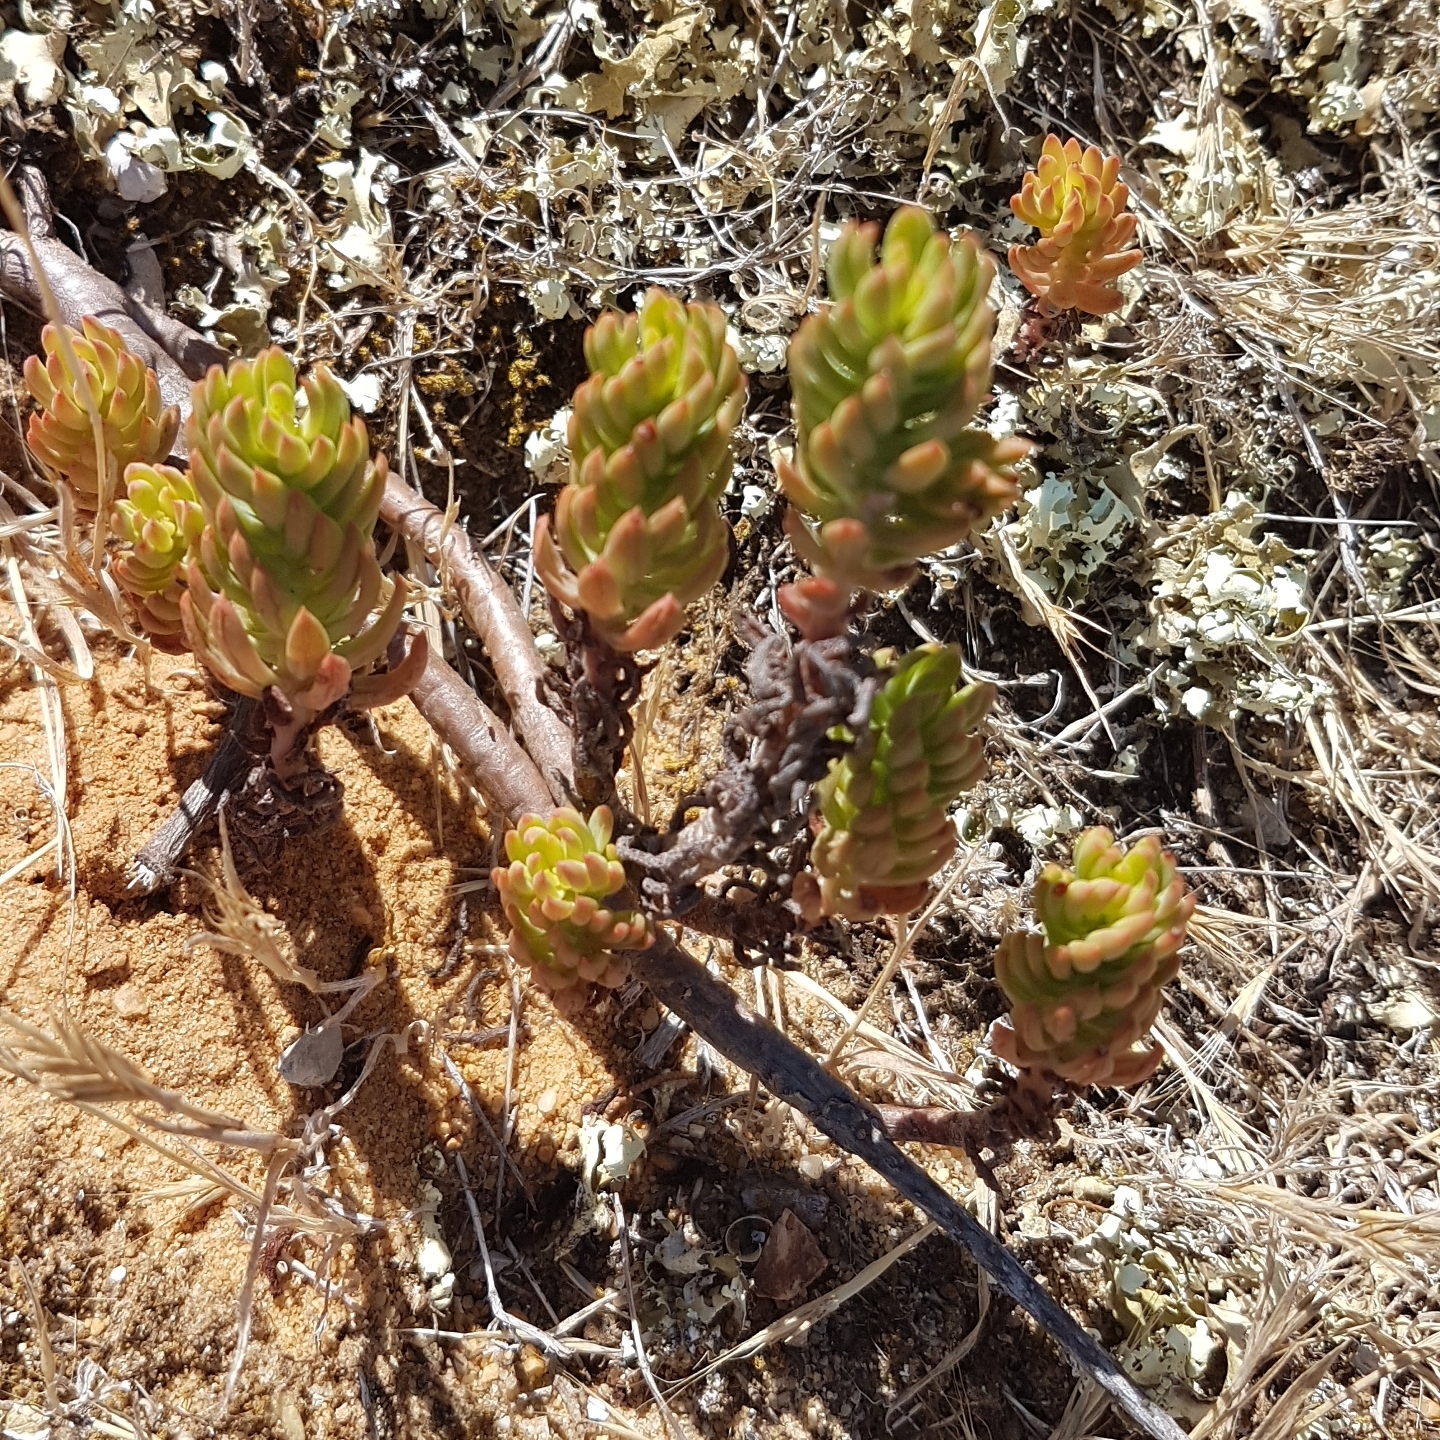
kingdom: Plantae
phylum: Tracheophyta
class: Magnoliopsida
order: Saxifragales
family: Crassulaceae
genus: Petrosedum
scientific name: Petrosedum sediforme
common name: Pale stonecrop
